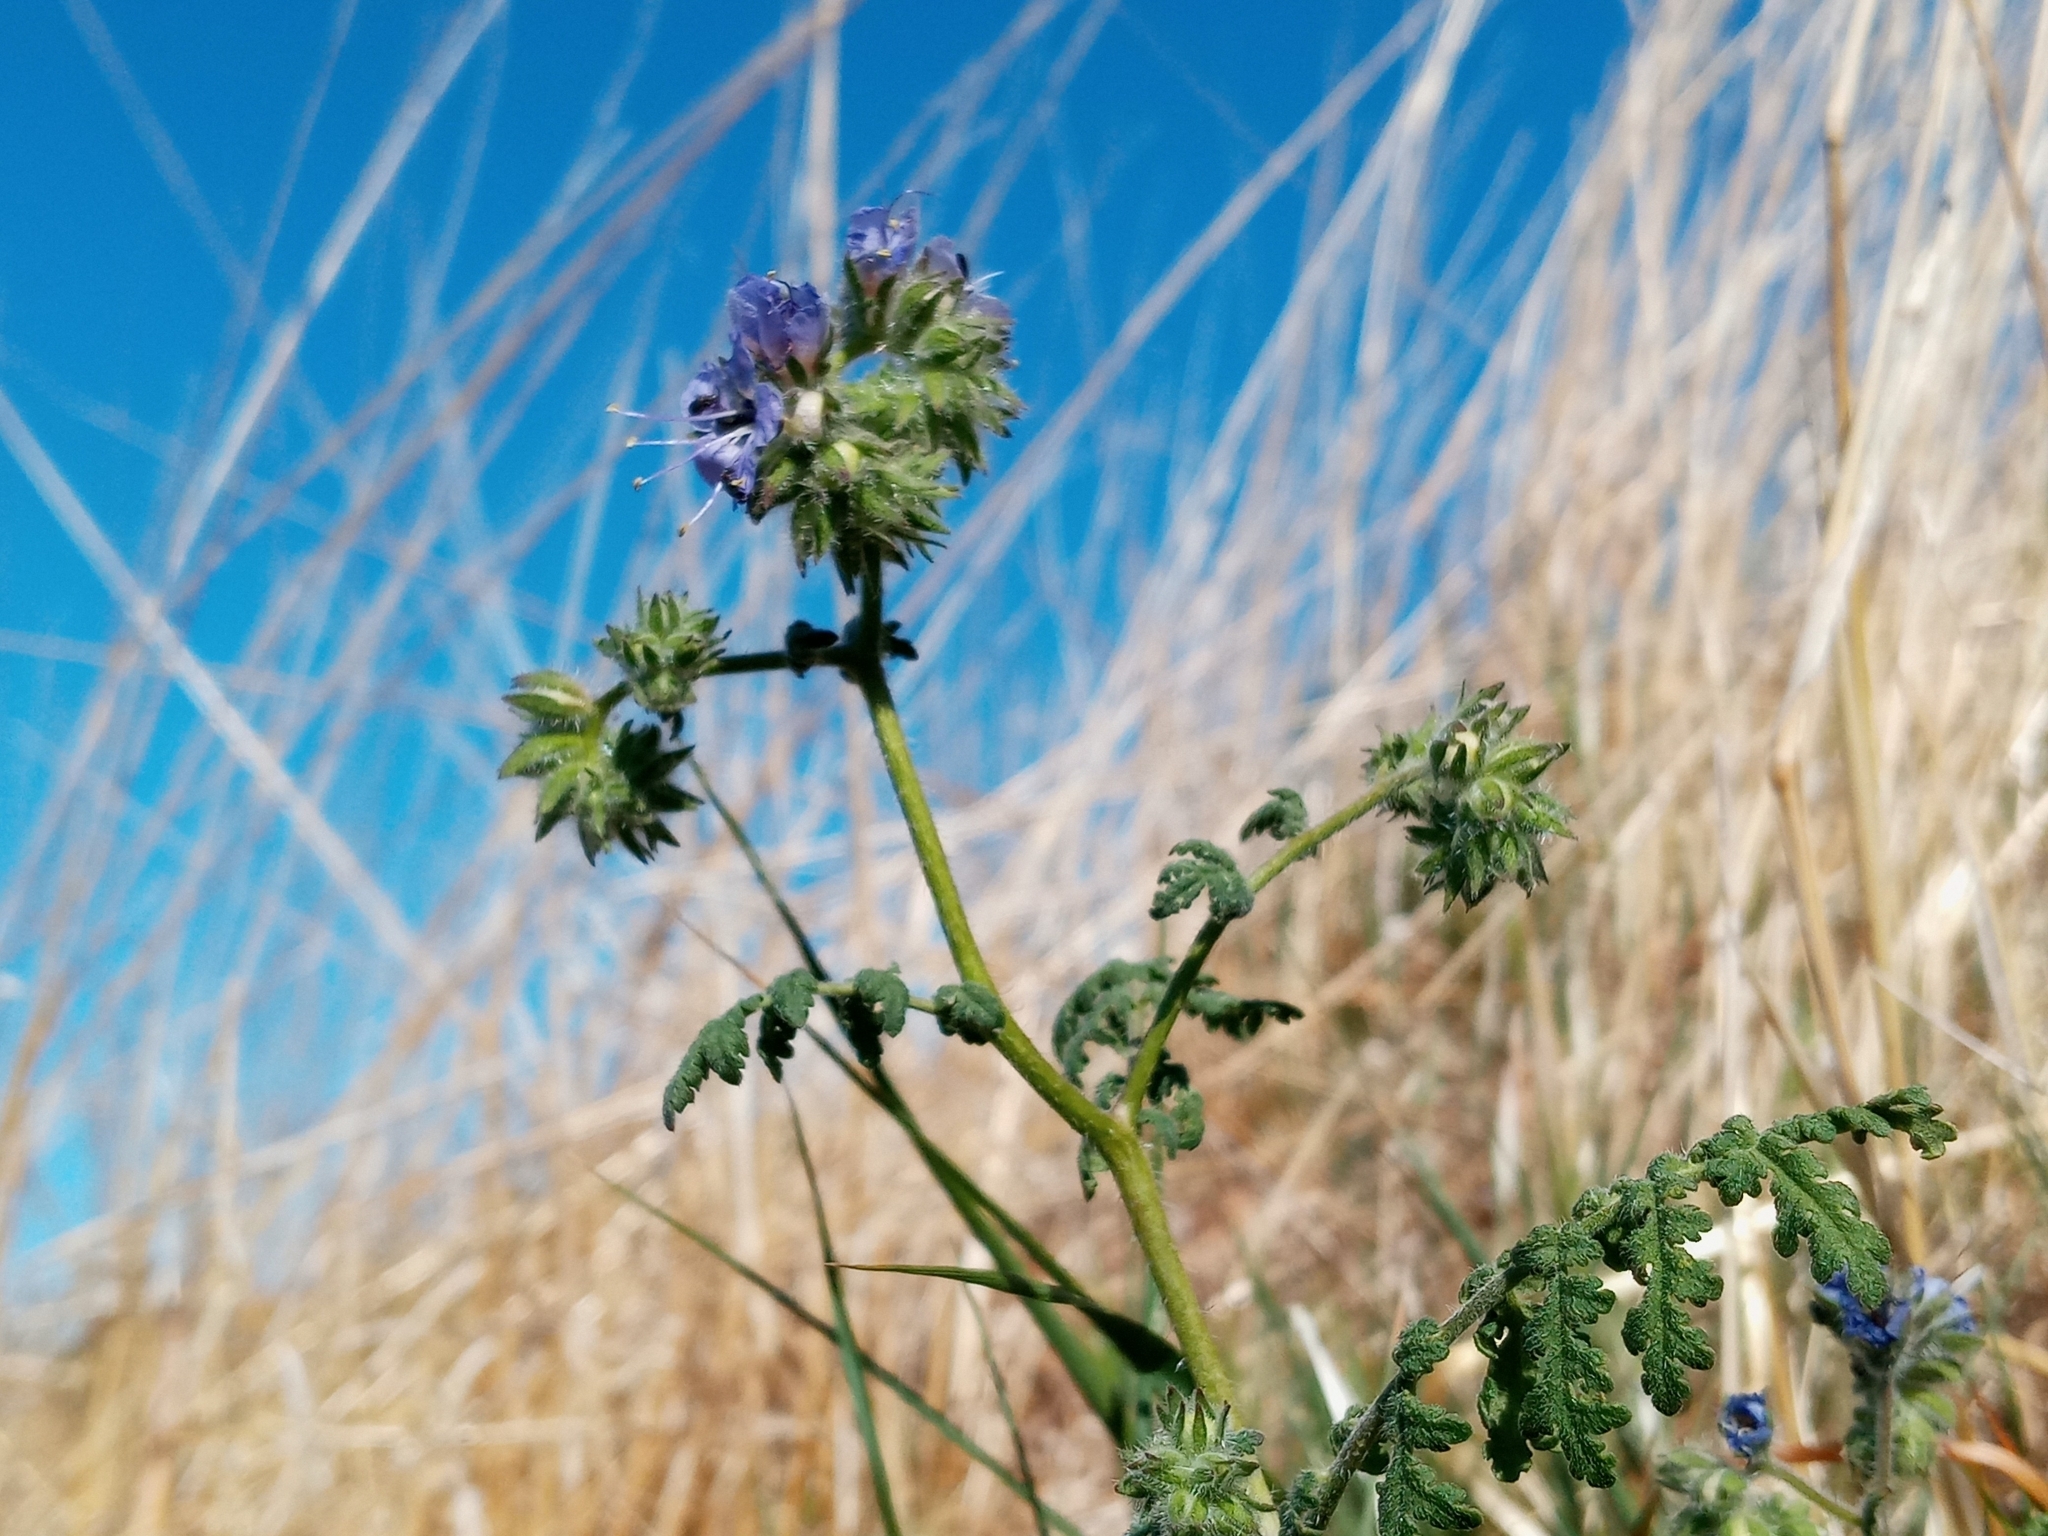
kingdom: Plantae
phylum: Tracheophyta
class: Magnoliopsida
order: Boraginales
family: Hydrophyllaceae
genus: Phacelia
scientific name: Phacelia distans
